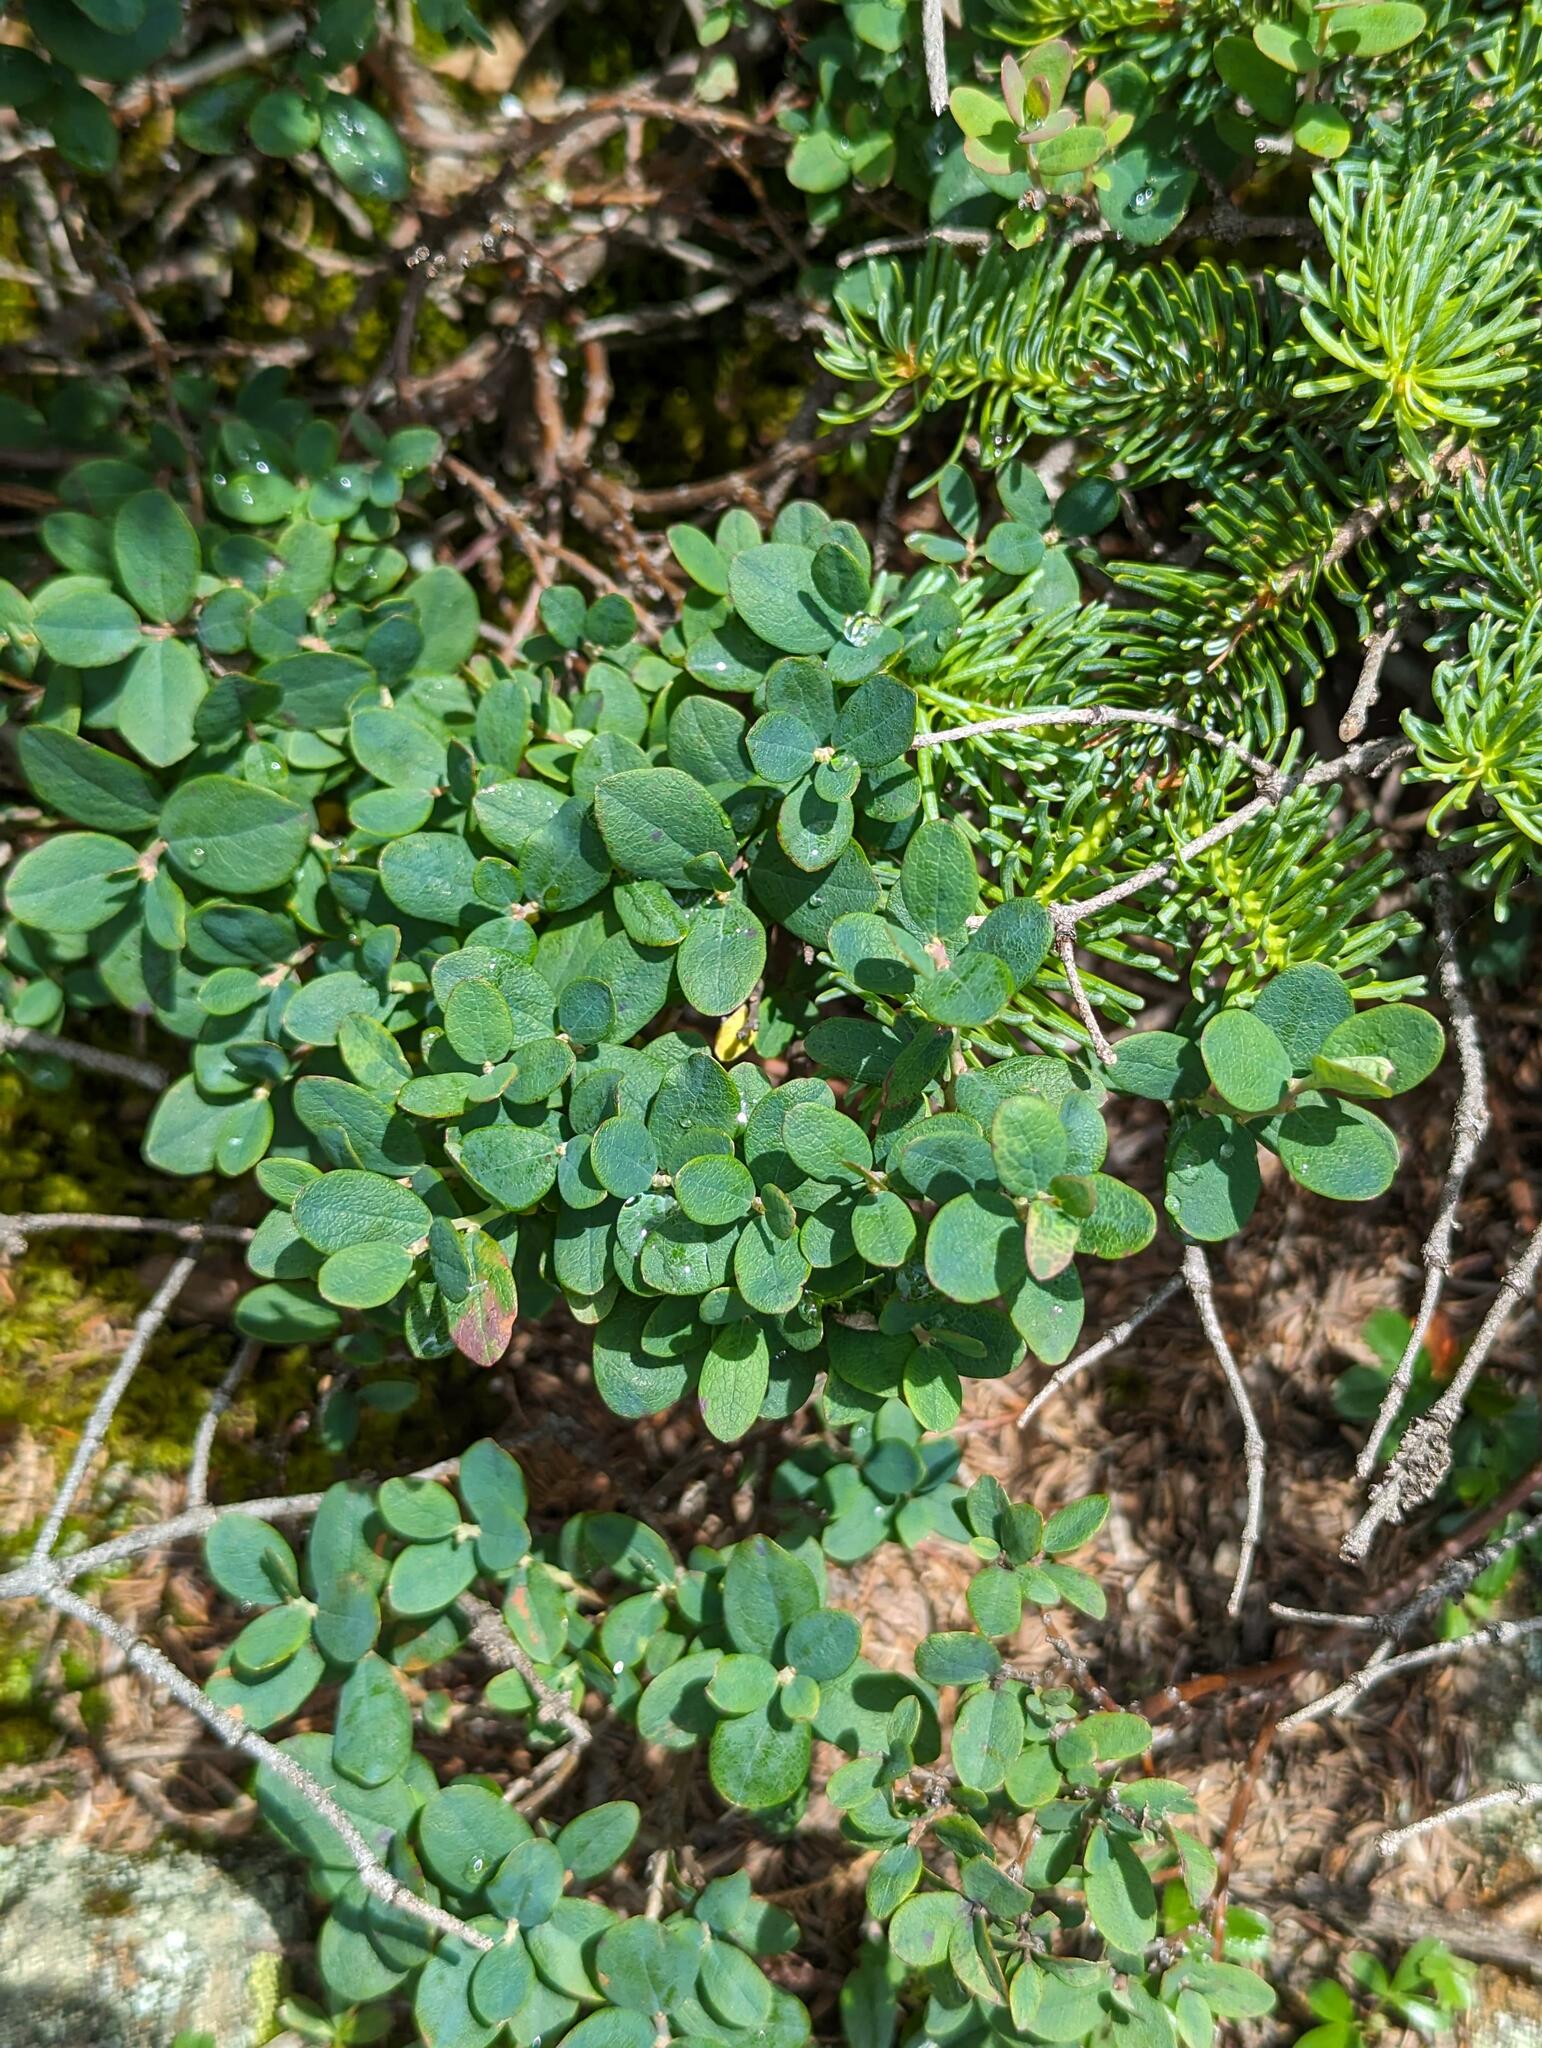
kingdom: Plantae
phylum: Tracheophyta
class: Magnoliopsida
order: Ericales
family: Ericaceae
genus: Vaccinium
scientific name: Vaccinium uliginosum
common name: Bog bilberry
